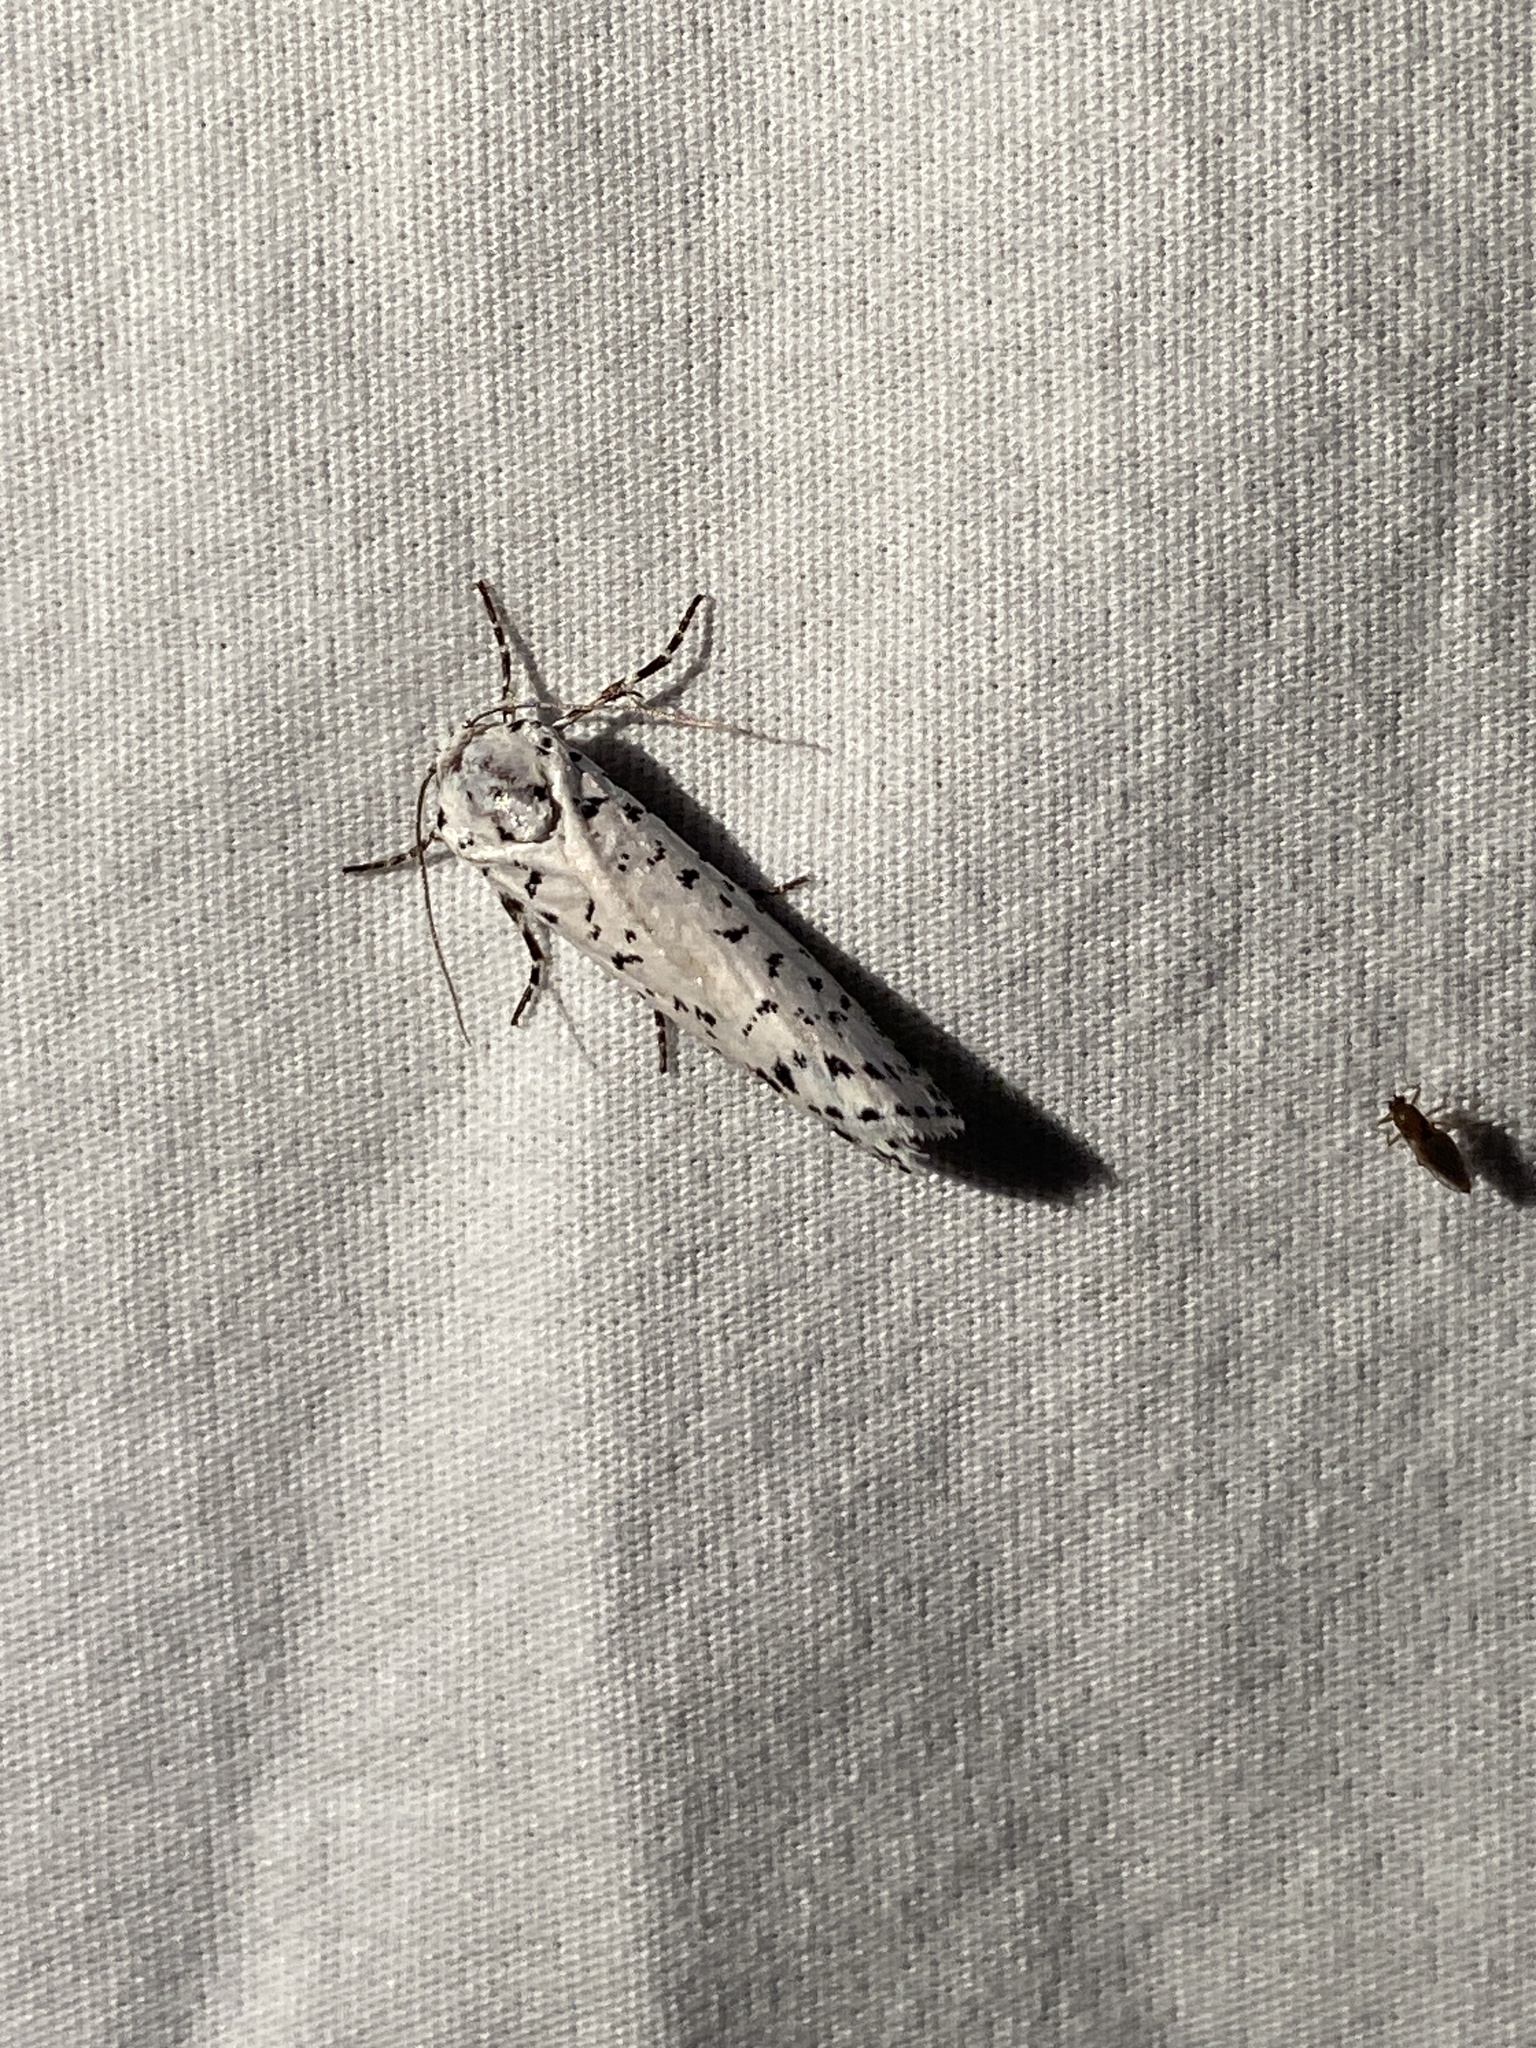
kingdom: Animalia
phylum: Arthropoda
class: Insecta
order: Lepidoptera
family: Noctuidae
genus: Cerathosia
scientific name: Cerathosia tricolor
